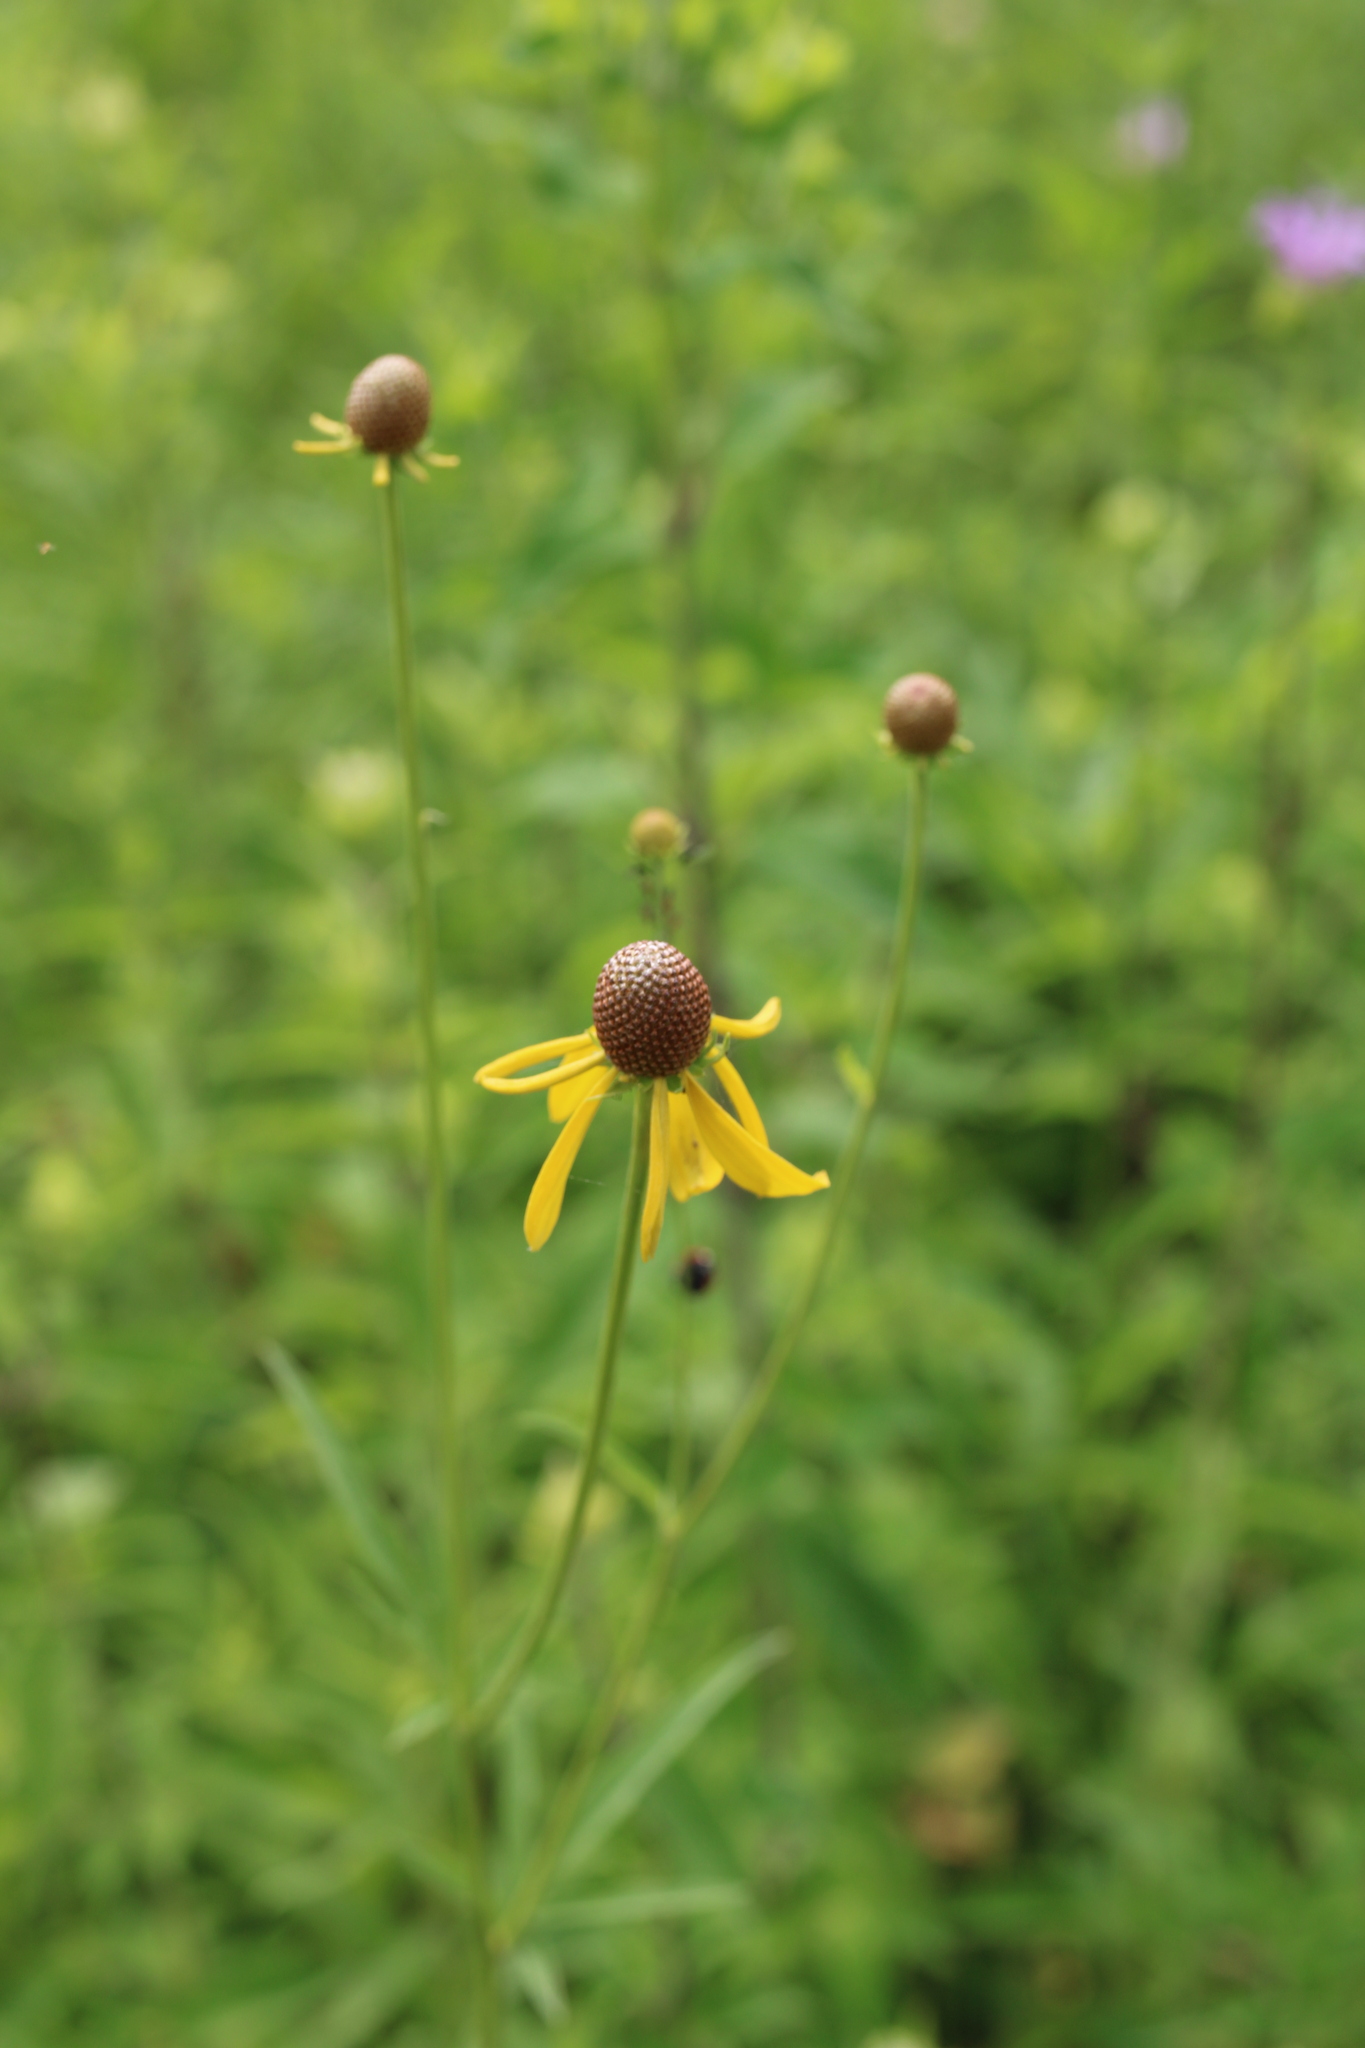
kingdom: Plantae
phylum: Tracheophyta
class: Magnoliopsida
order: Asterales
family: Asteraceae
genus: Ratibida
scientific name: Ratibida pinnata
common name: Drooping prairie-coneflower
